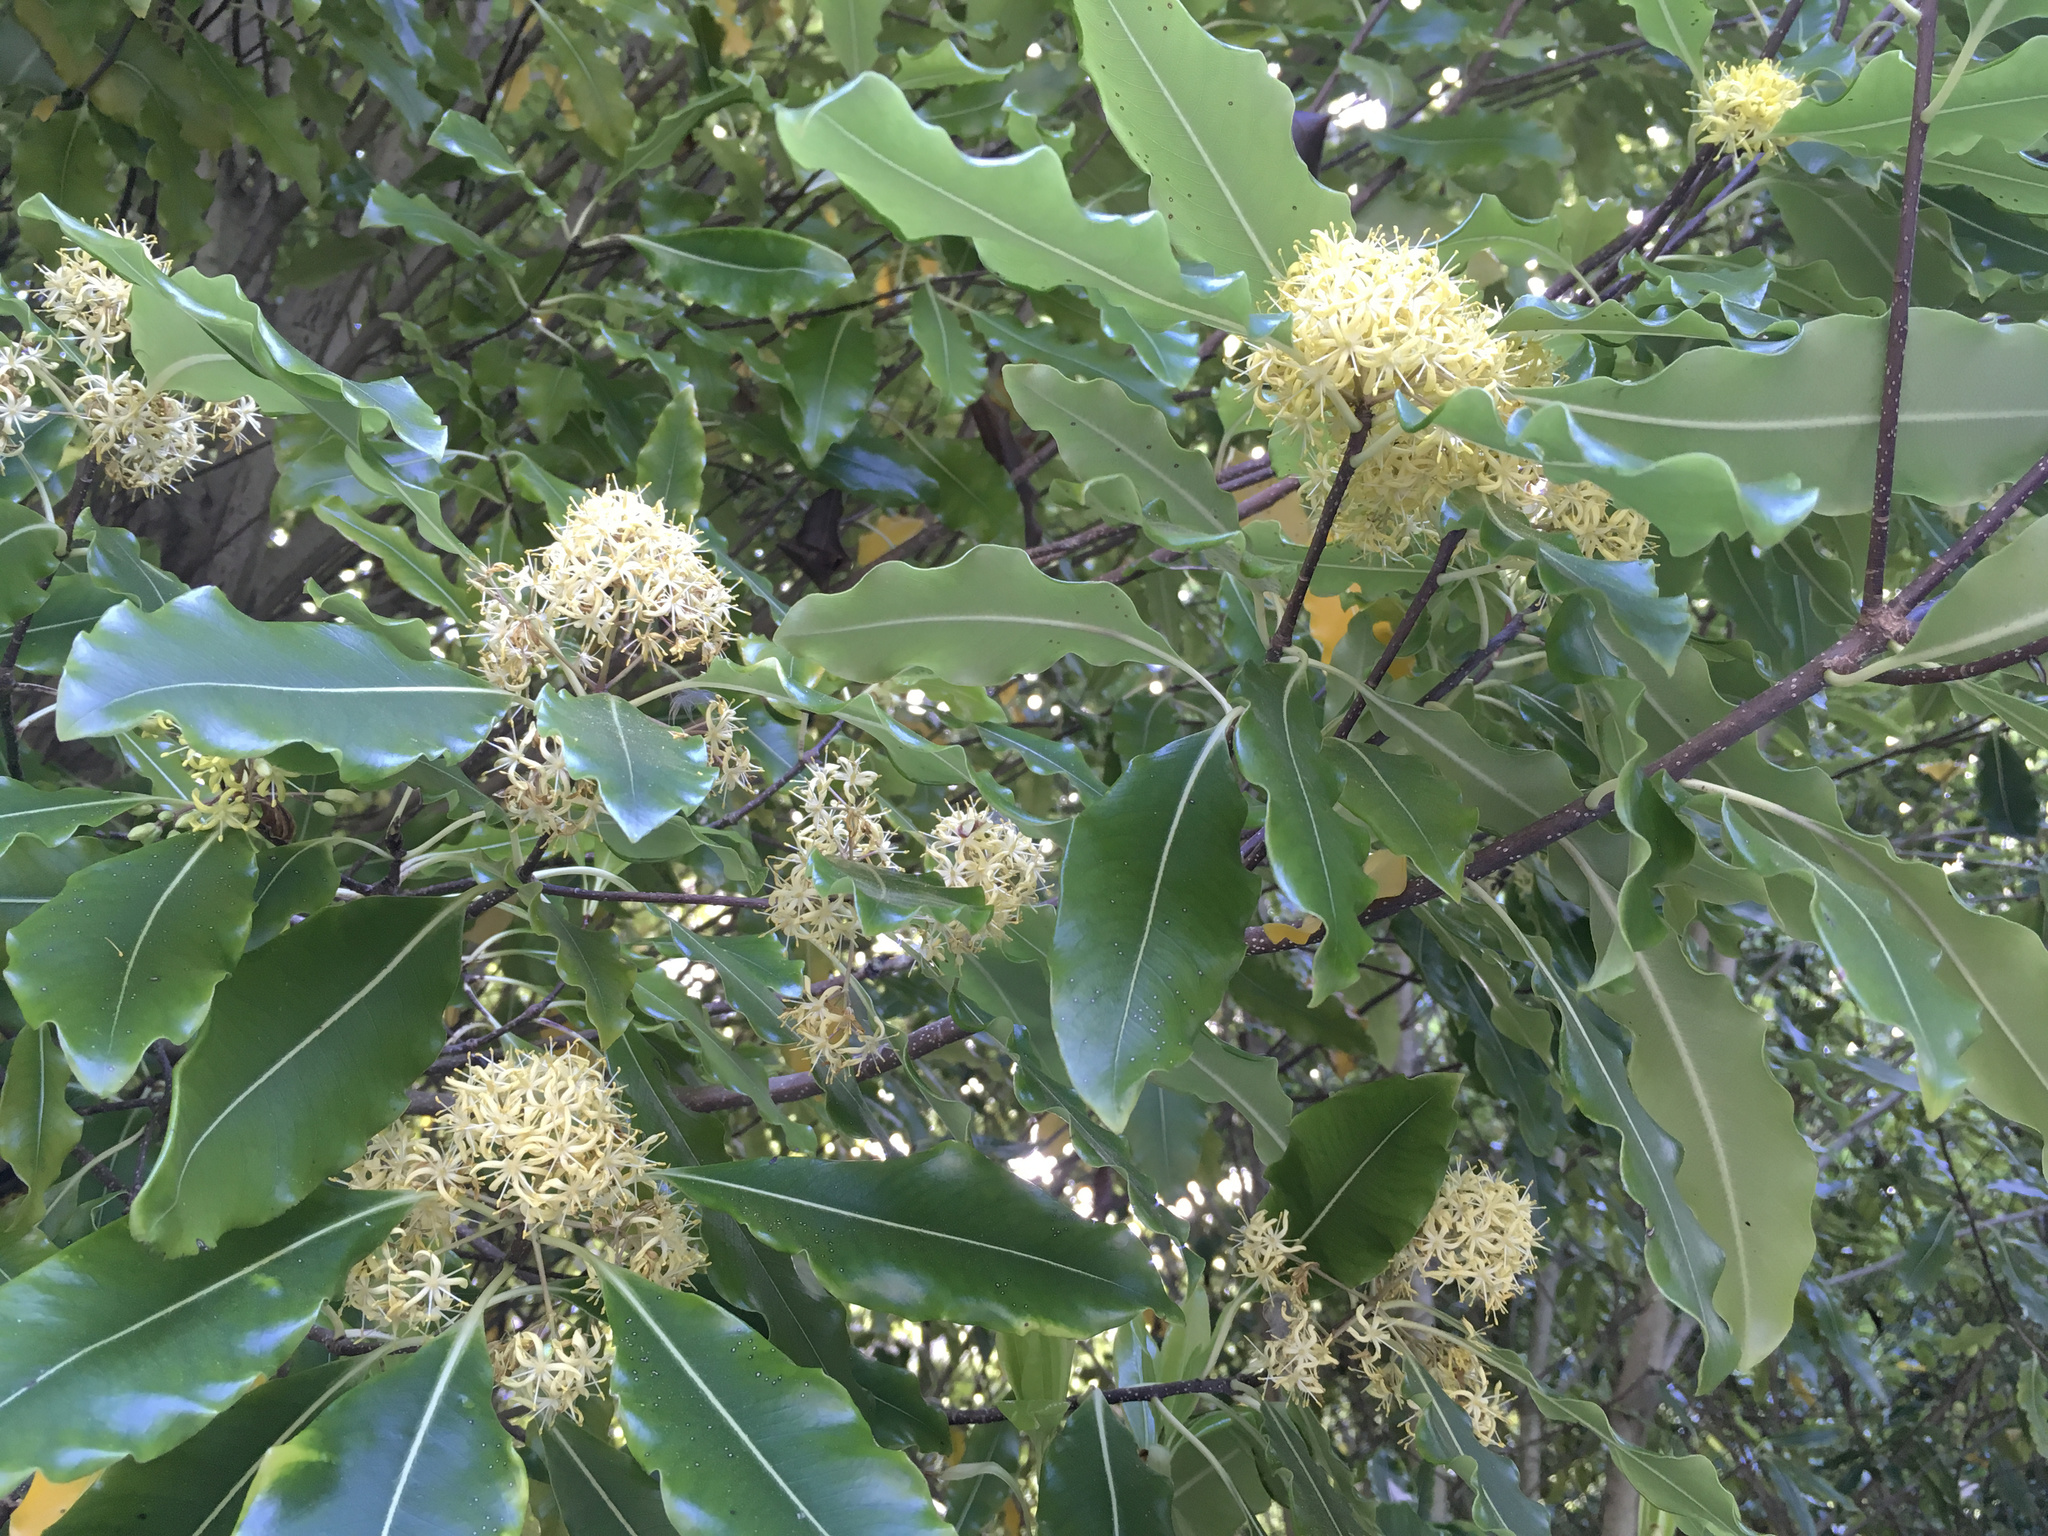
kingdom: Plantae
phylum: Tracheophyta
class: Magnoliopsida
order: Apiales
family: Pittosporaceae
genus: Pittosporum
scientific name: Pittosporum eugenioides
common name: Lemonwood
